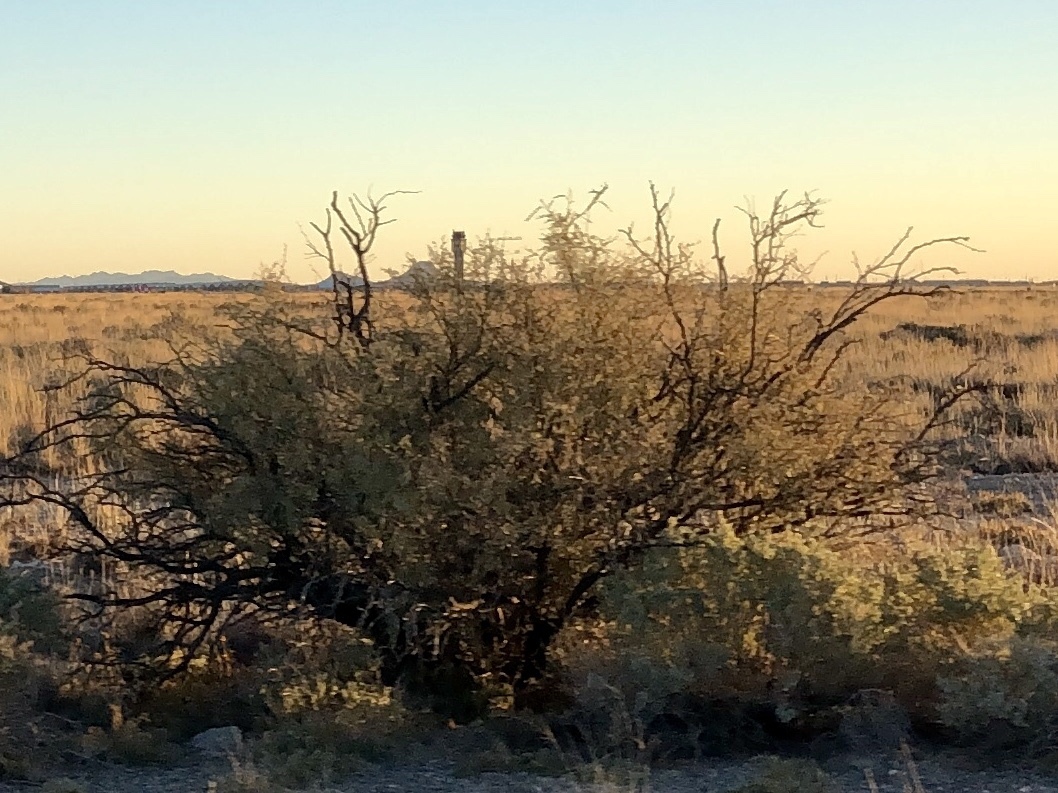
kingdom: Plantae
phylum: Tracheophyta
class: Magnoliopsida
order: Fabales
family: Fabaceae
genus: Prosopis
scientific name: Prosopis glandulosa
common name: Honey mesquite
